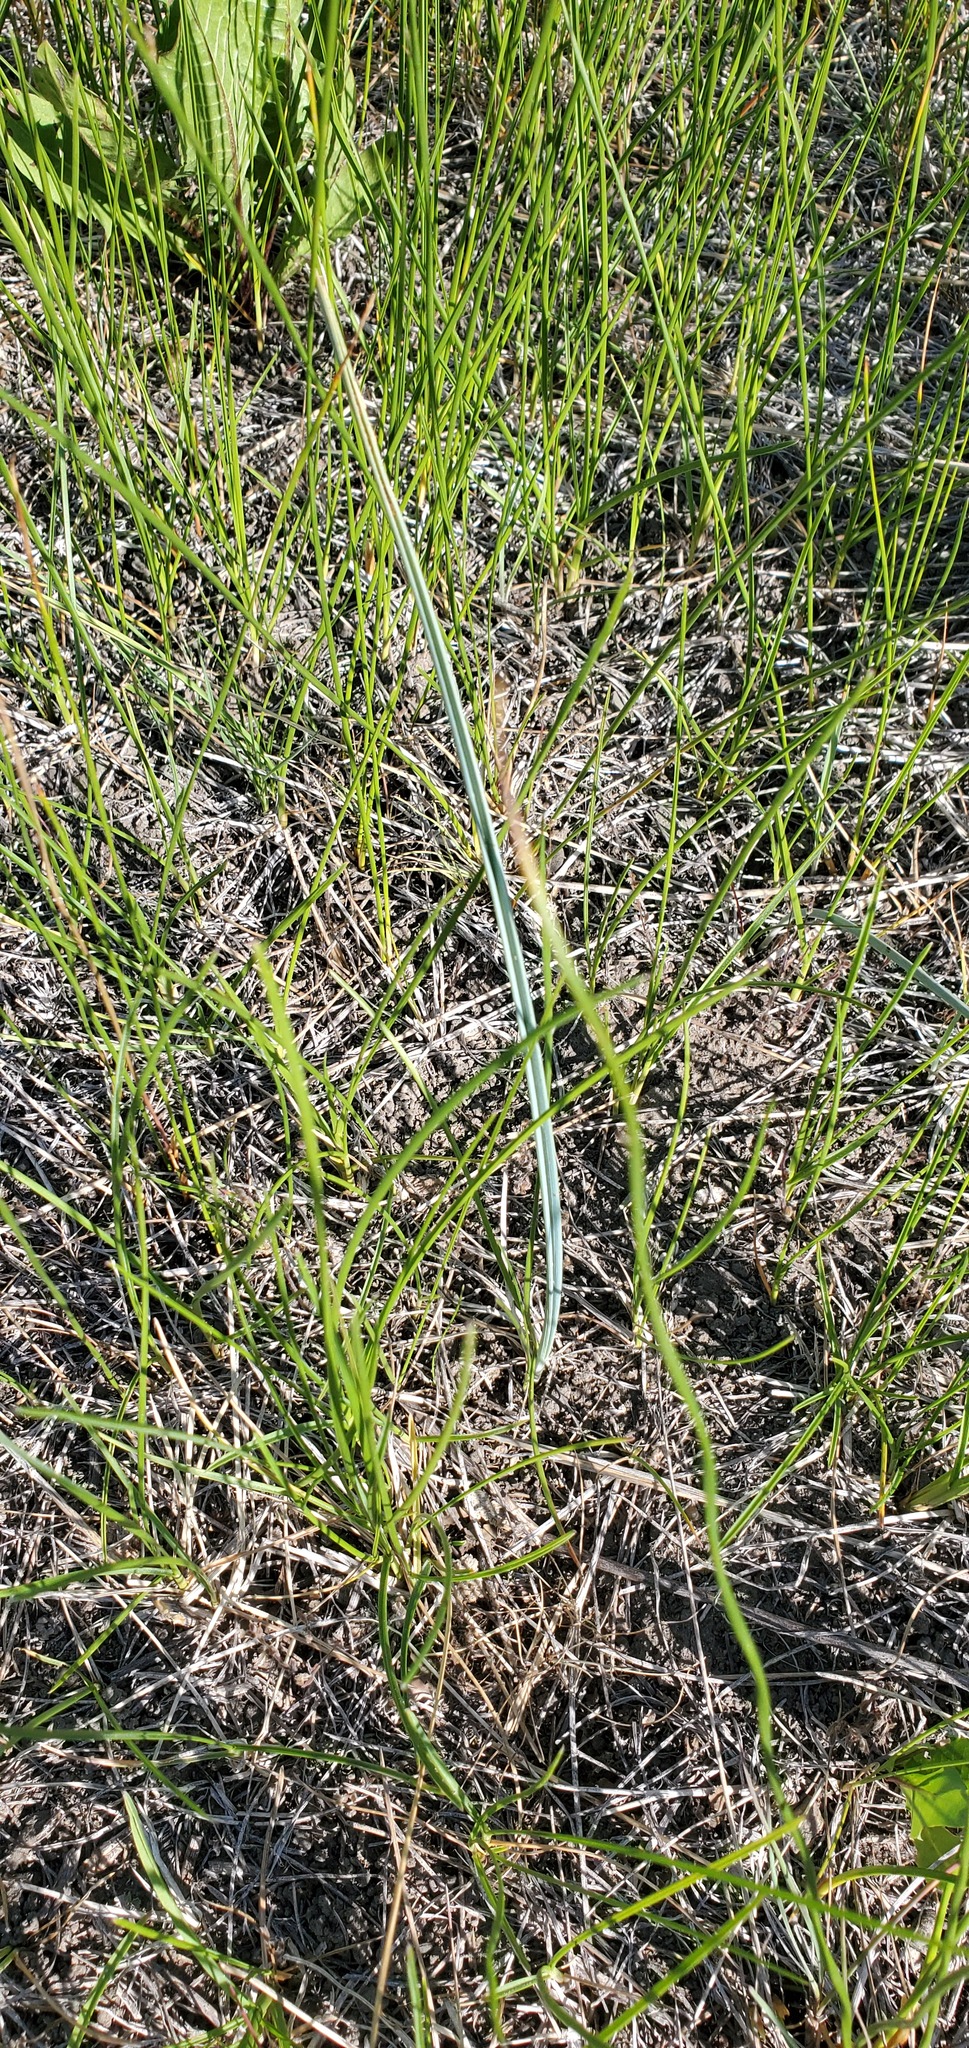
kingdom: Plantae
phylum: Tracheophyta
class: Liliopsida
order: Liliales
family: Liliaceae
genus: Calochortus
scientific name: Calochortus macrocarpus
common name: Green-band mariposa lily
